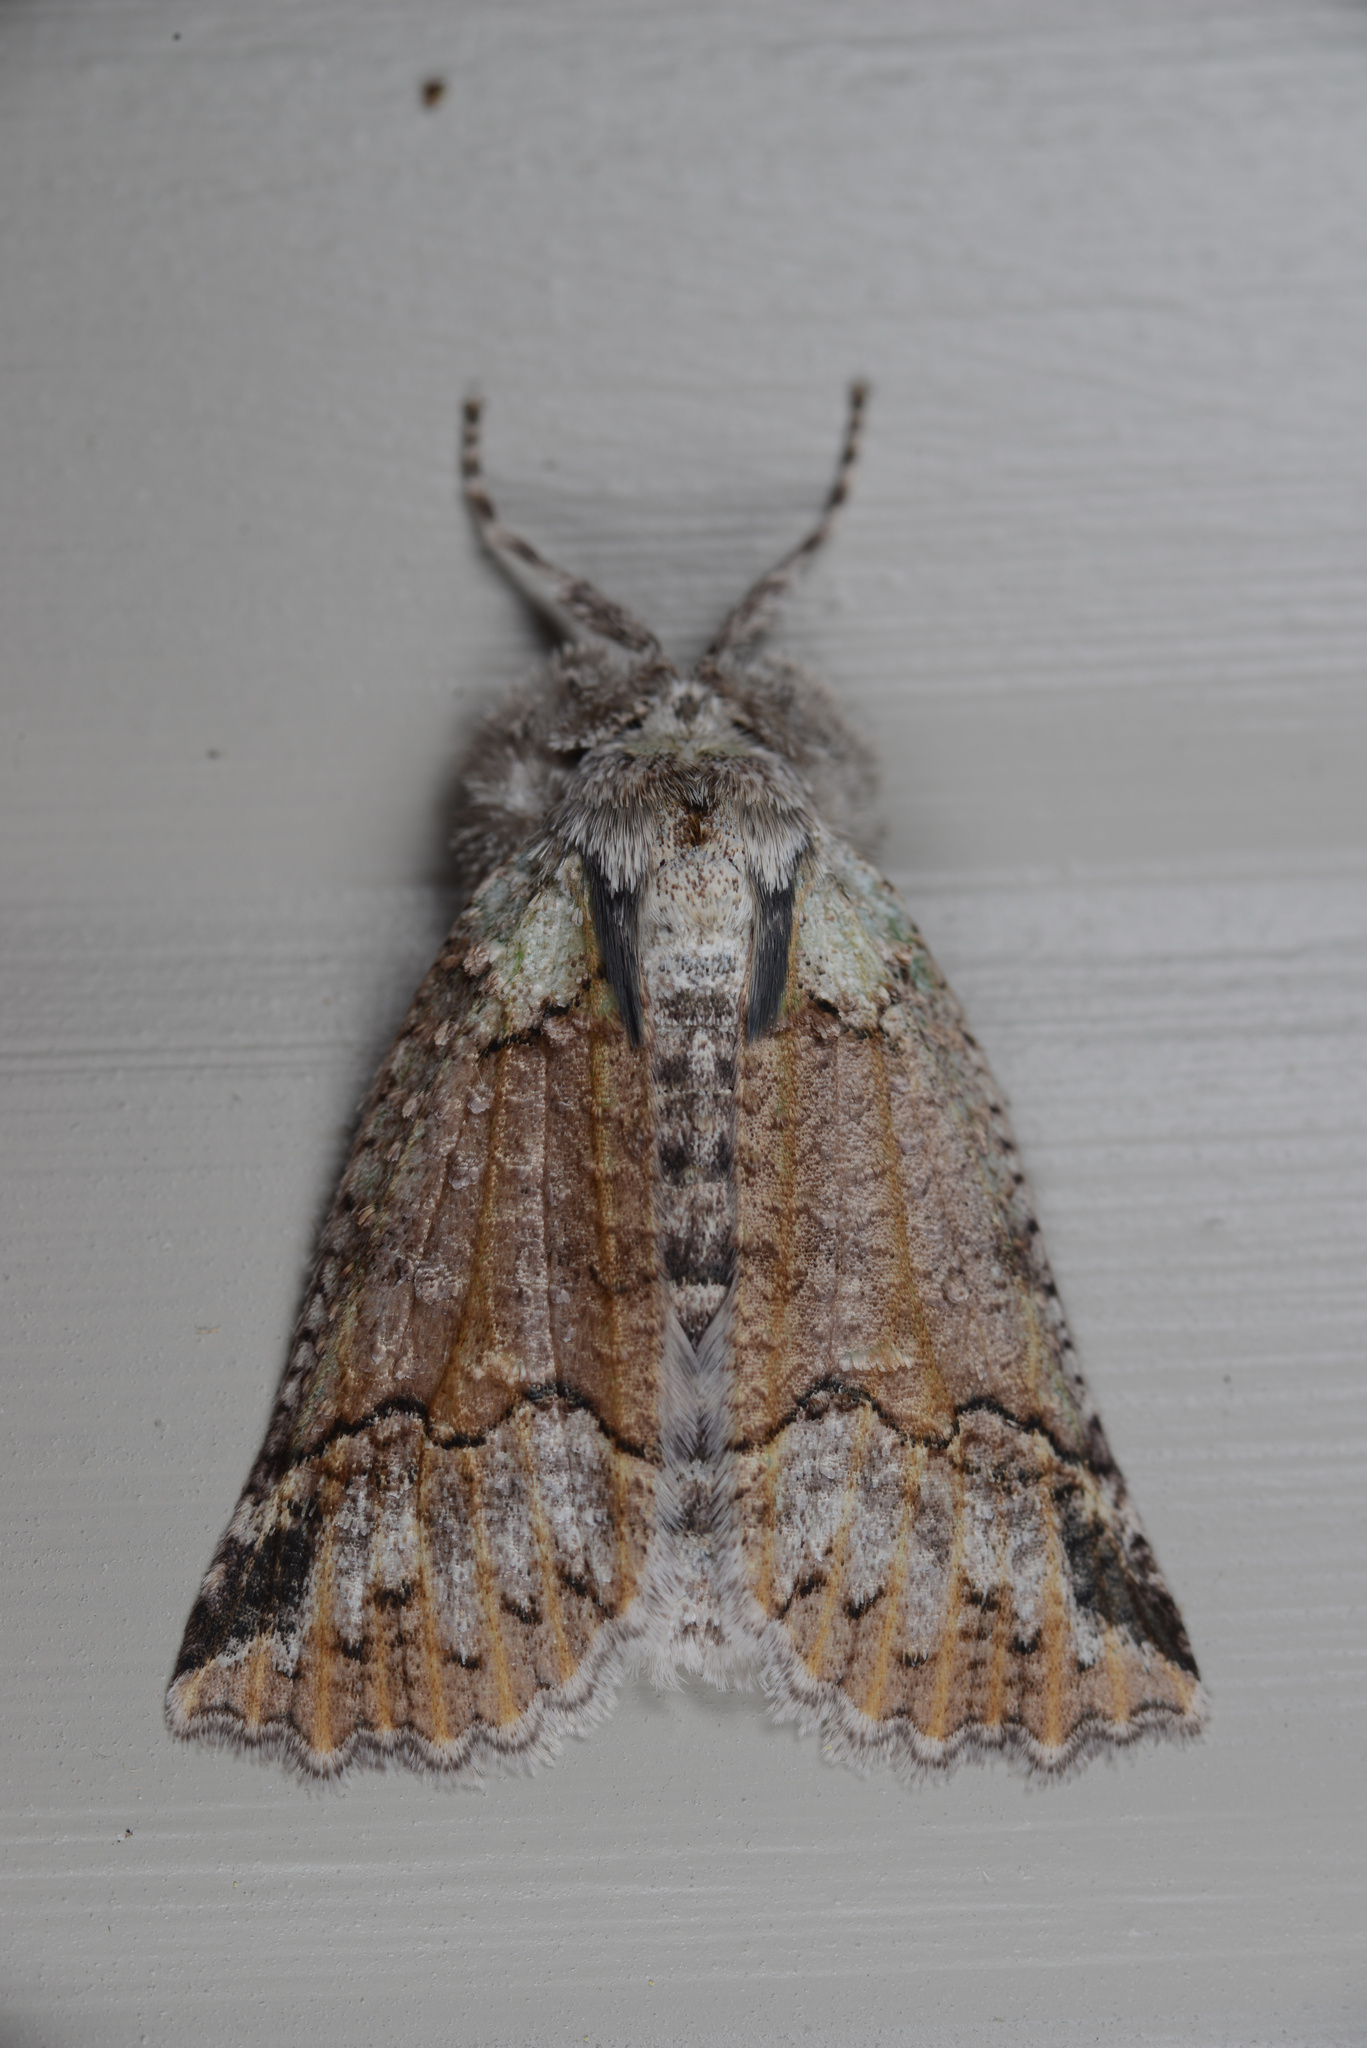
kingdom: Animalia
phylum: Arthropoda
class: Insecta
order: Lepidoptera
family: Geometridae
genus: Declana
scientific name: Declana floccosa
